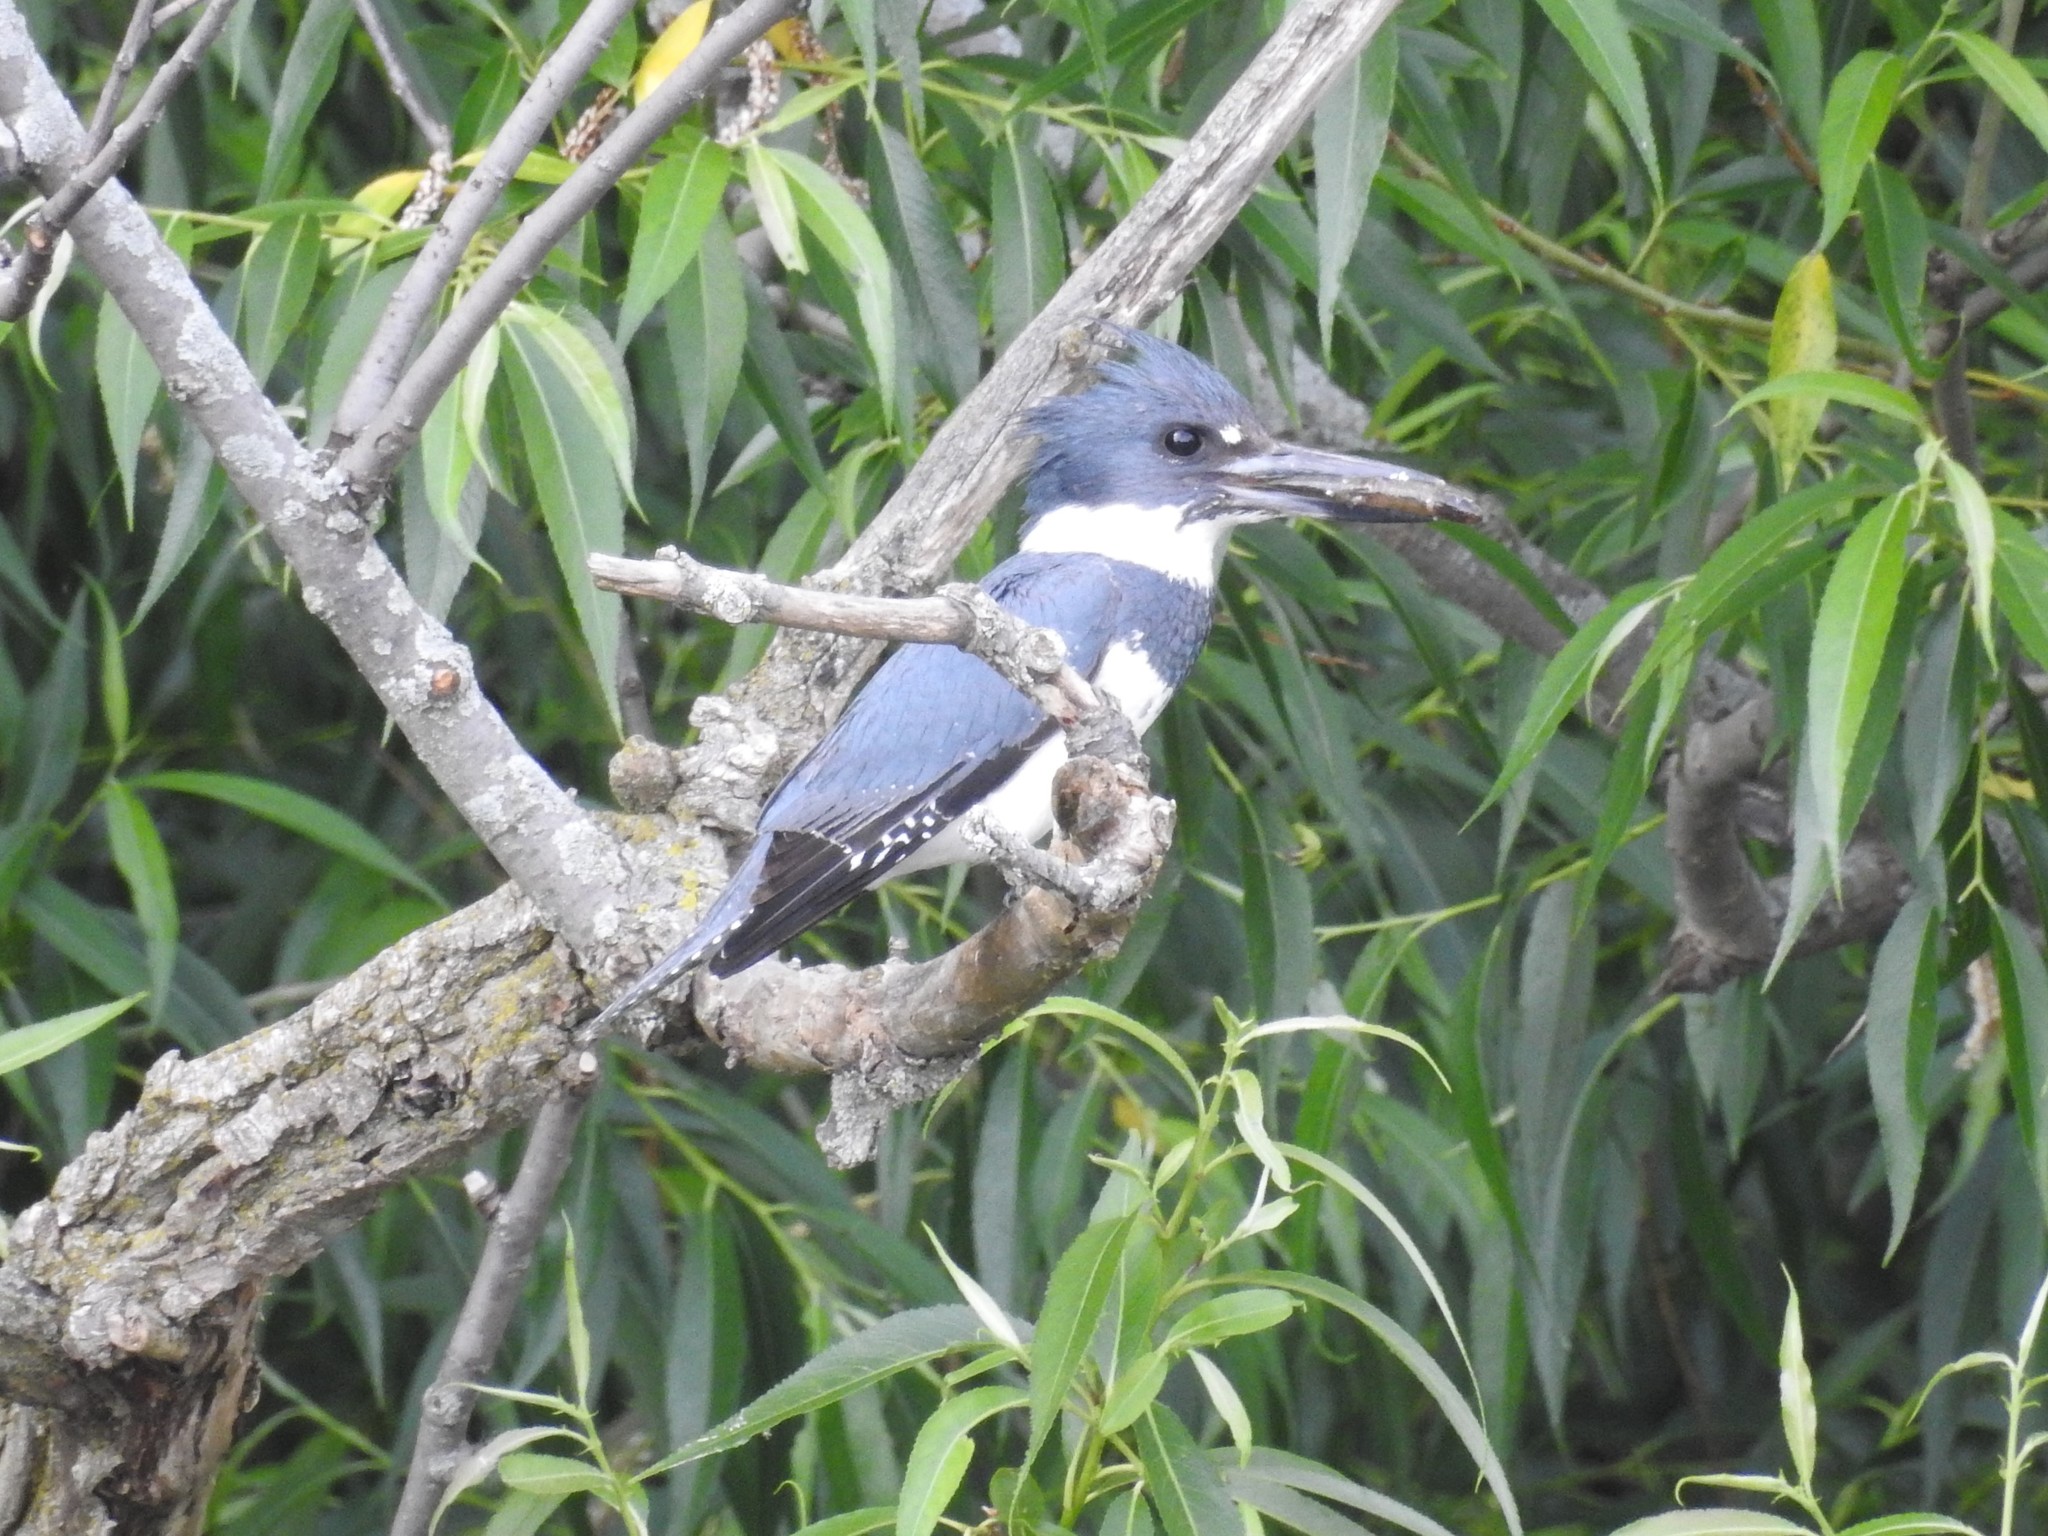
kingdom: Animalia
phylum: Chordata
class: Aves
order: Coraciiformes
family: Alcedinidae
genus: Megaceryle
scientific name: Megaceryle alcyon
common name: Belted kingfisher
